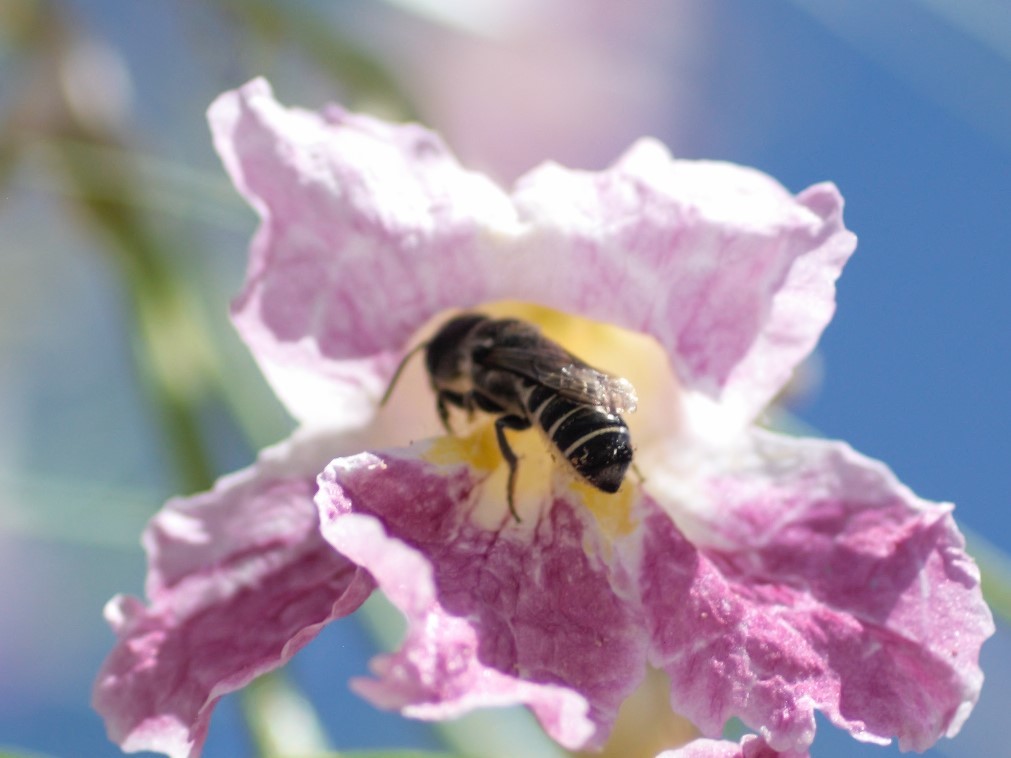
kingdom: Animalia
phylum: Arthropoda
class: Insecta
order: Hymenoptera
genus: Chelostomoides
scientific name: Chelostomoides
